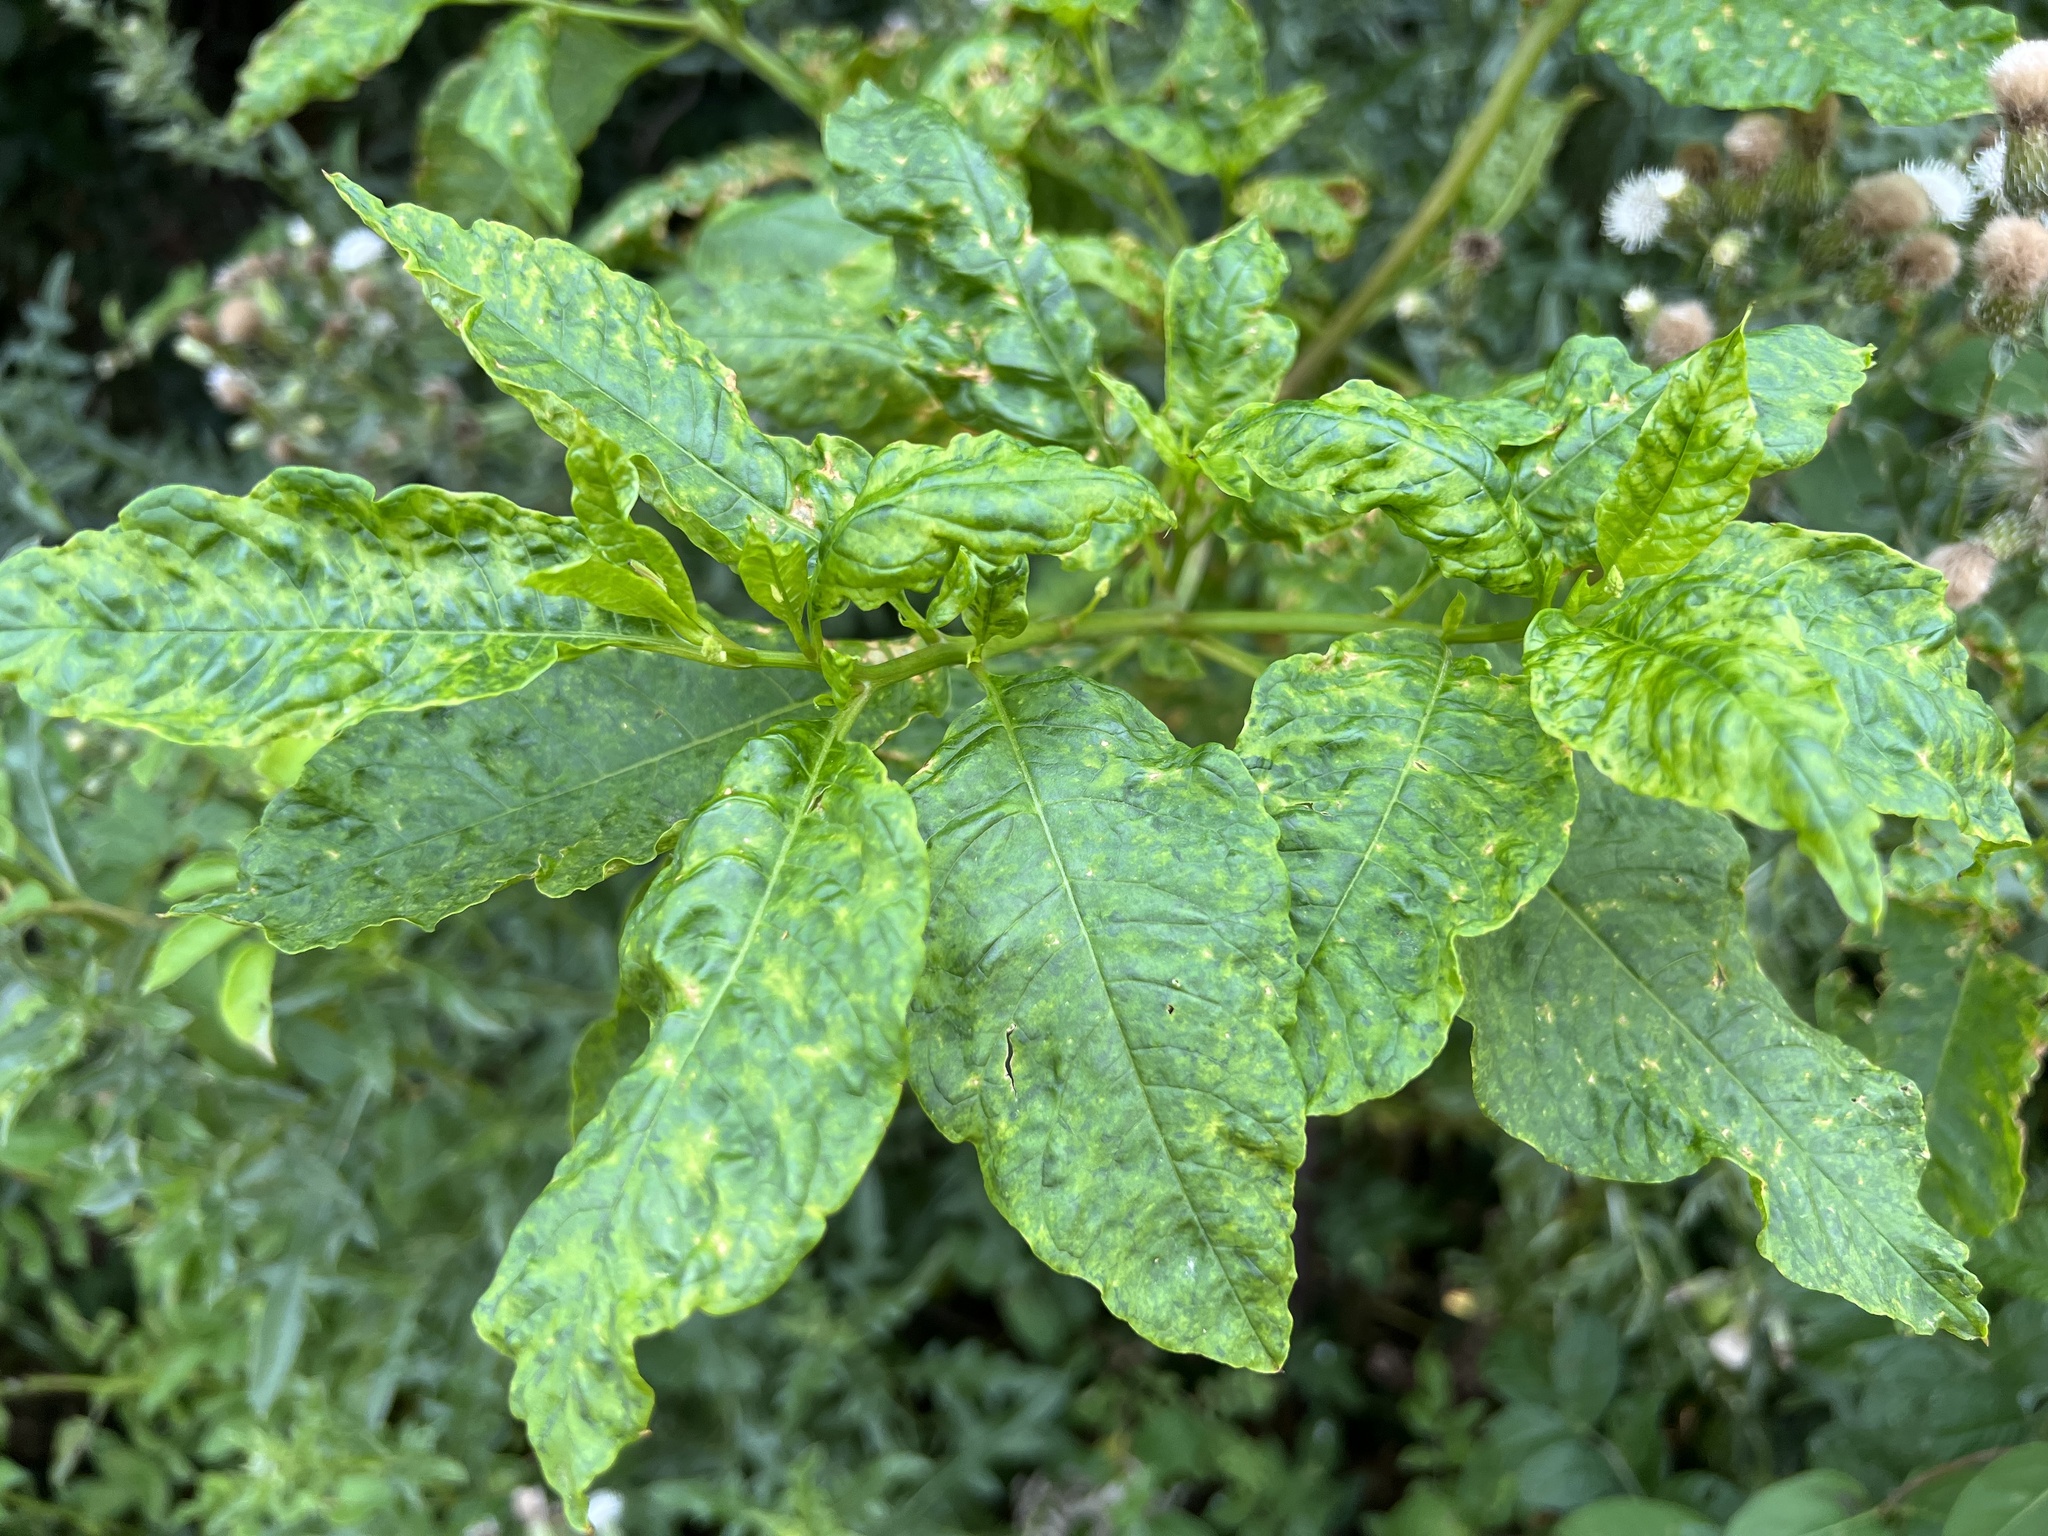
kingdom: Viruses
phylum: Pisuviricota
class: Stelpaviricetes
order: Patatavirales
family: Potyviridae
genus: Potyvirus
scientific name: Potyvirus Pokeweed mosaic virus
